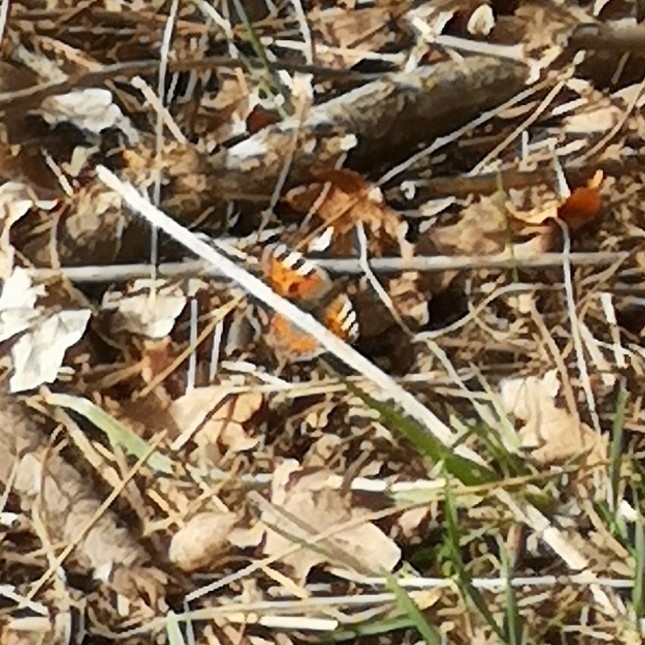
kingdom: Animalia
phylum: Arthropoda
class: Insecta
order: Lepidoptera
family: Nymphalidae
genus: Aglais
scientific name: Aglais urticae
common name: Small tortoiseshell
